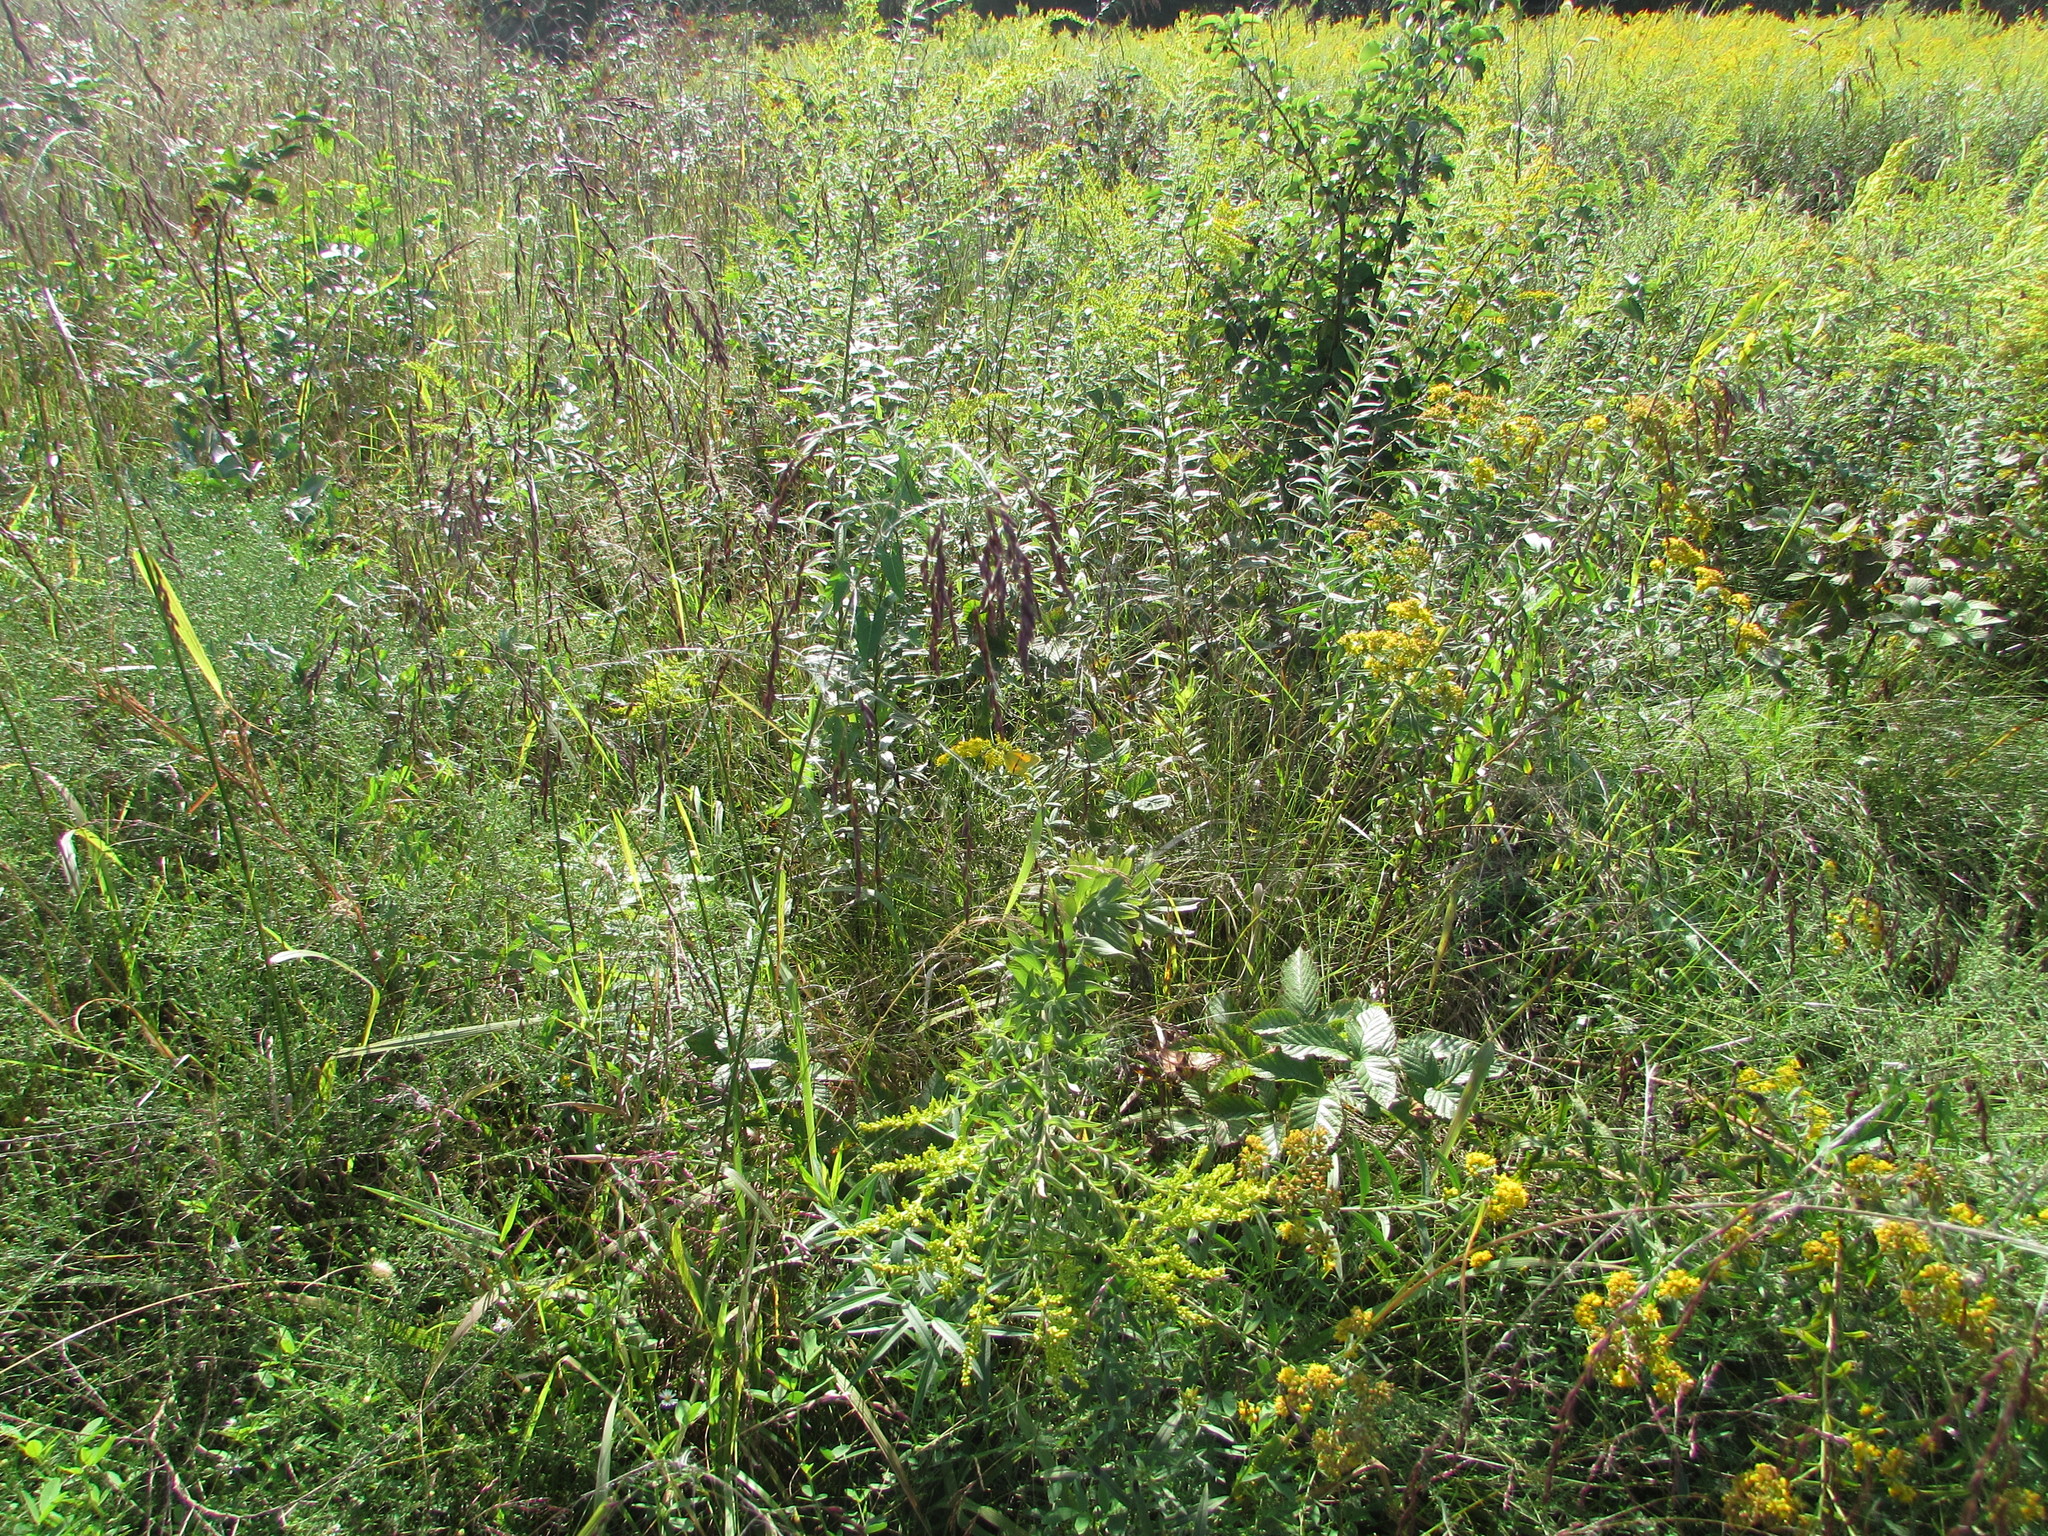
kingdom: Plantae
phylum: Tracheophyta
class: Liliopsida
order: Poales
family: Poaceae
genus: Tridens
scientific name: Tridens flavus
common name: Purpletop
